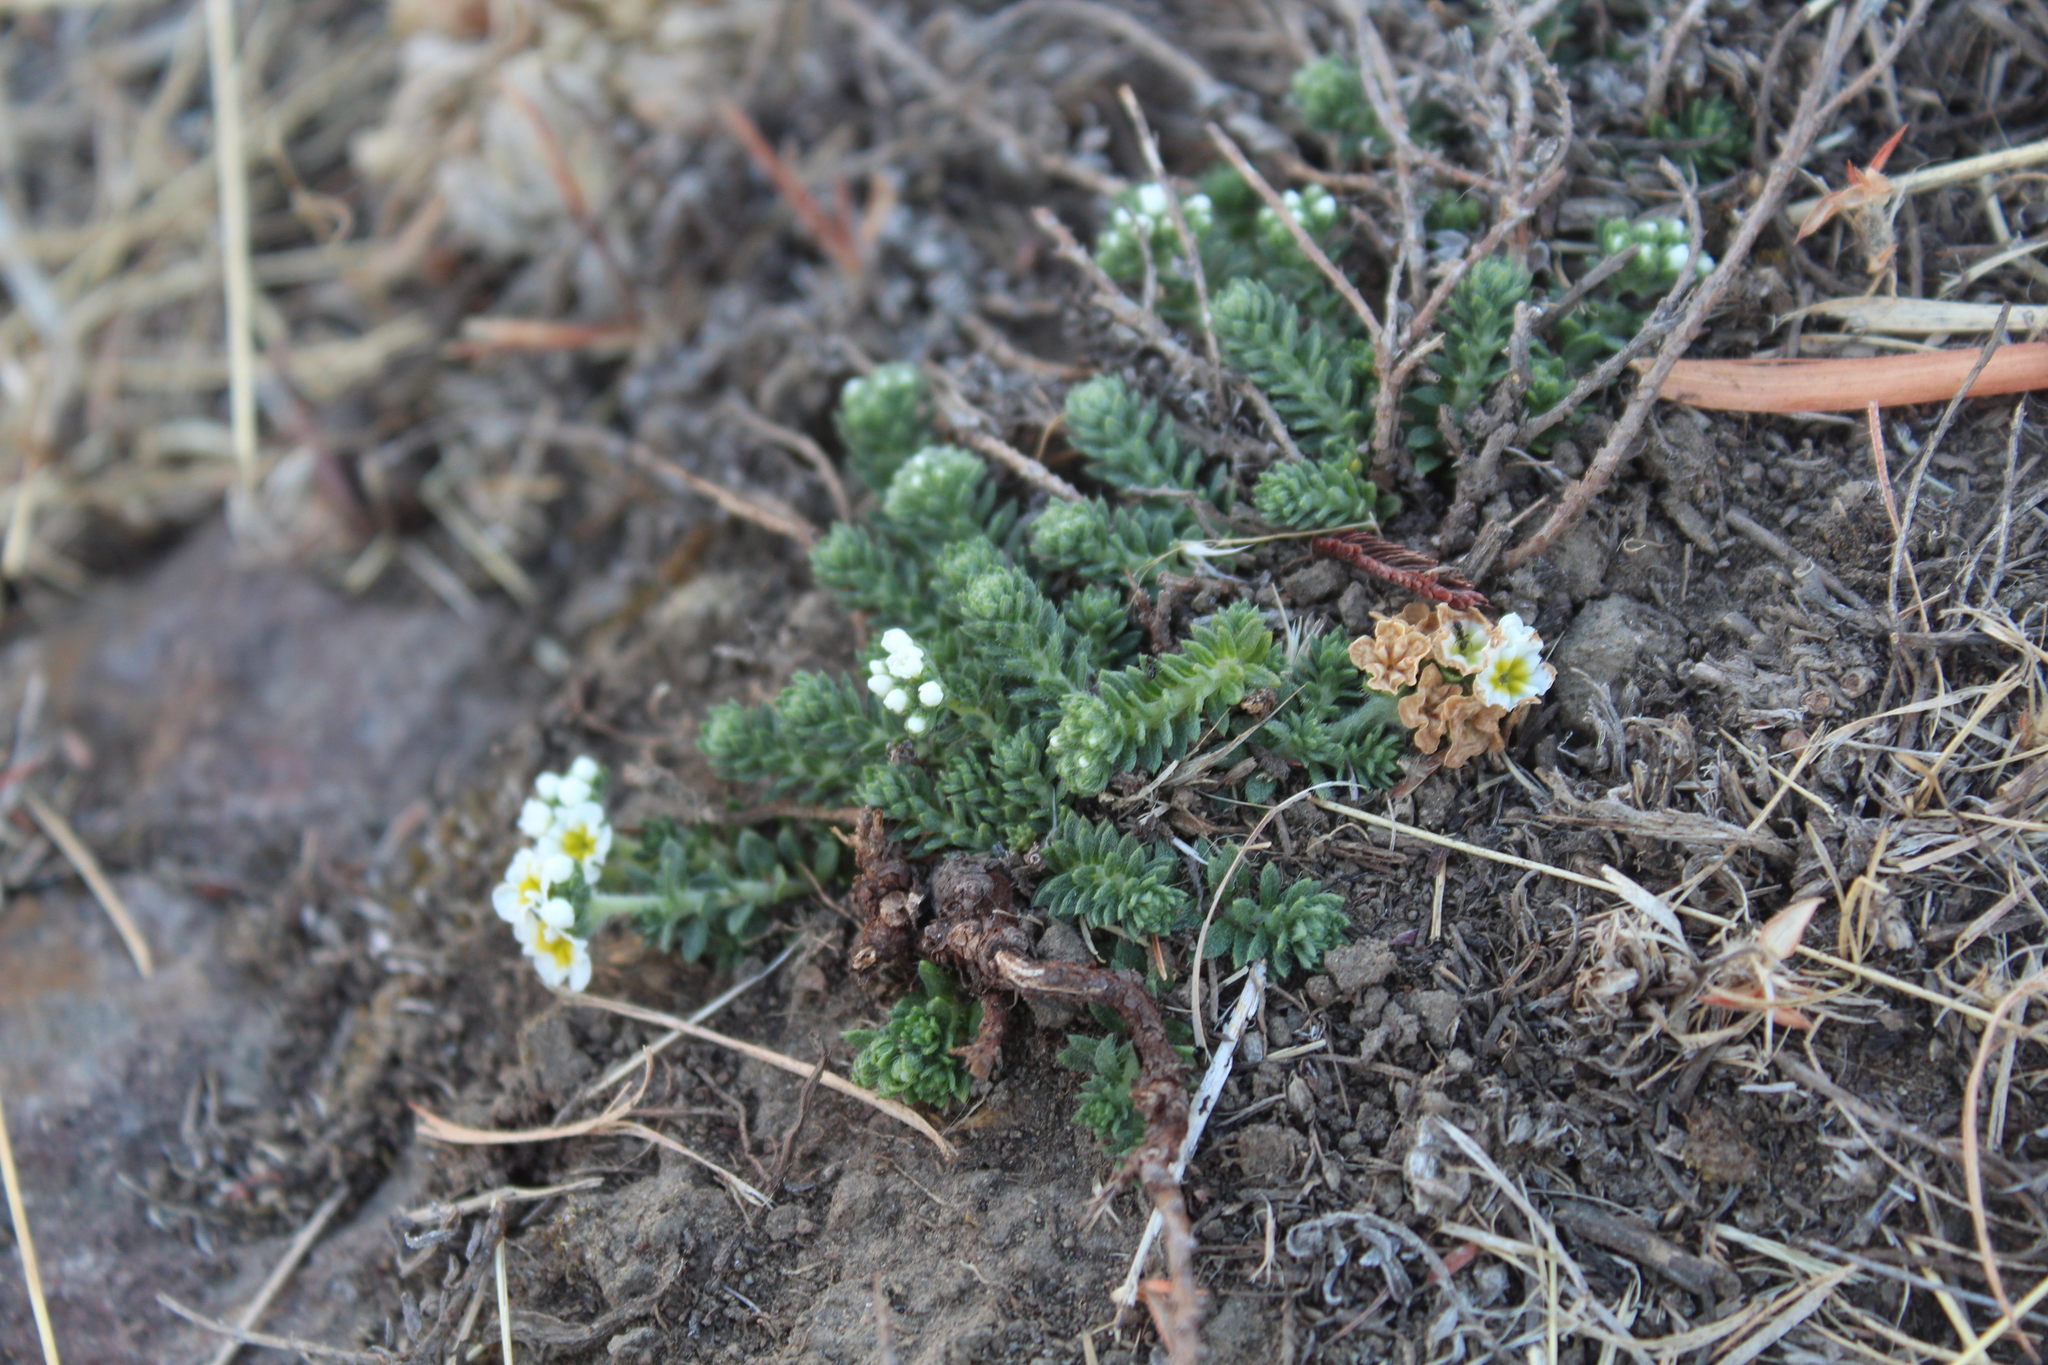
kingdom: Plantae
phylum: Tracheophyta
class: Magnoliopsida
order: Boraginales
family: Heliotropiaceae
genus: Euploca
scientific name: Euploca foliosissima
